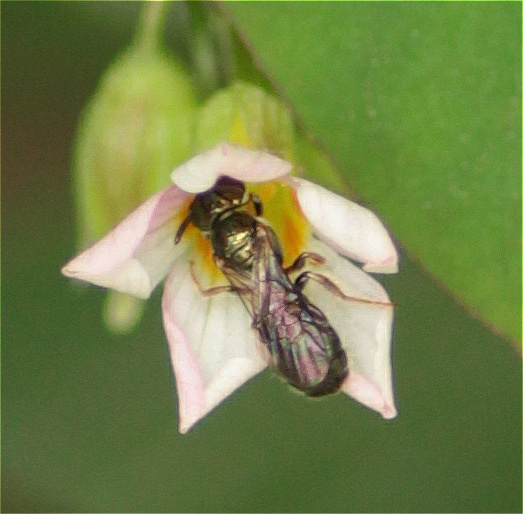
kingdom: Animalia
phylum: Arthropoda
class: Insecta
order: Hymenoptera
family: Apidae
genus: Ceratina
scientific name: Ceratina
